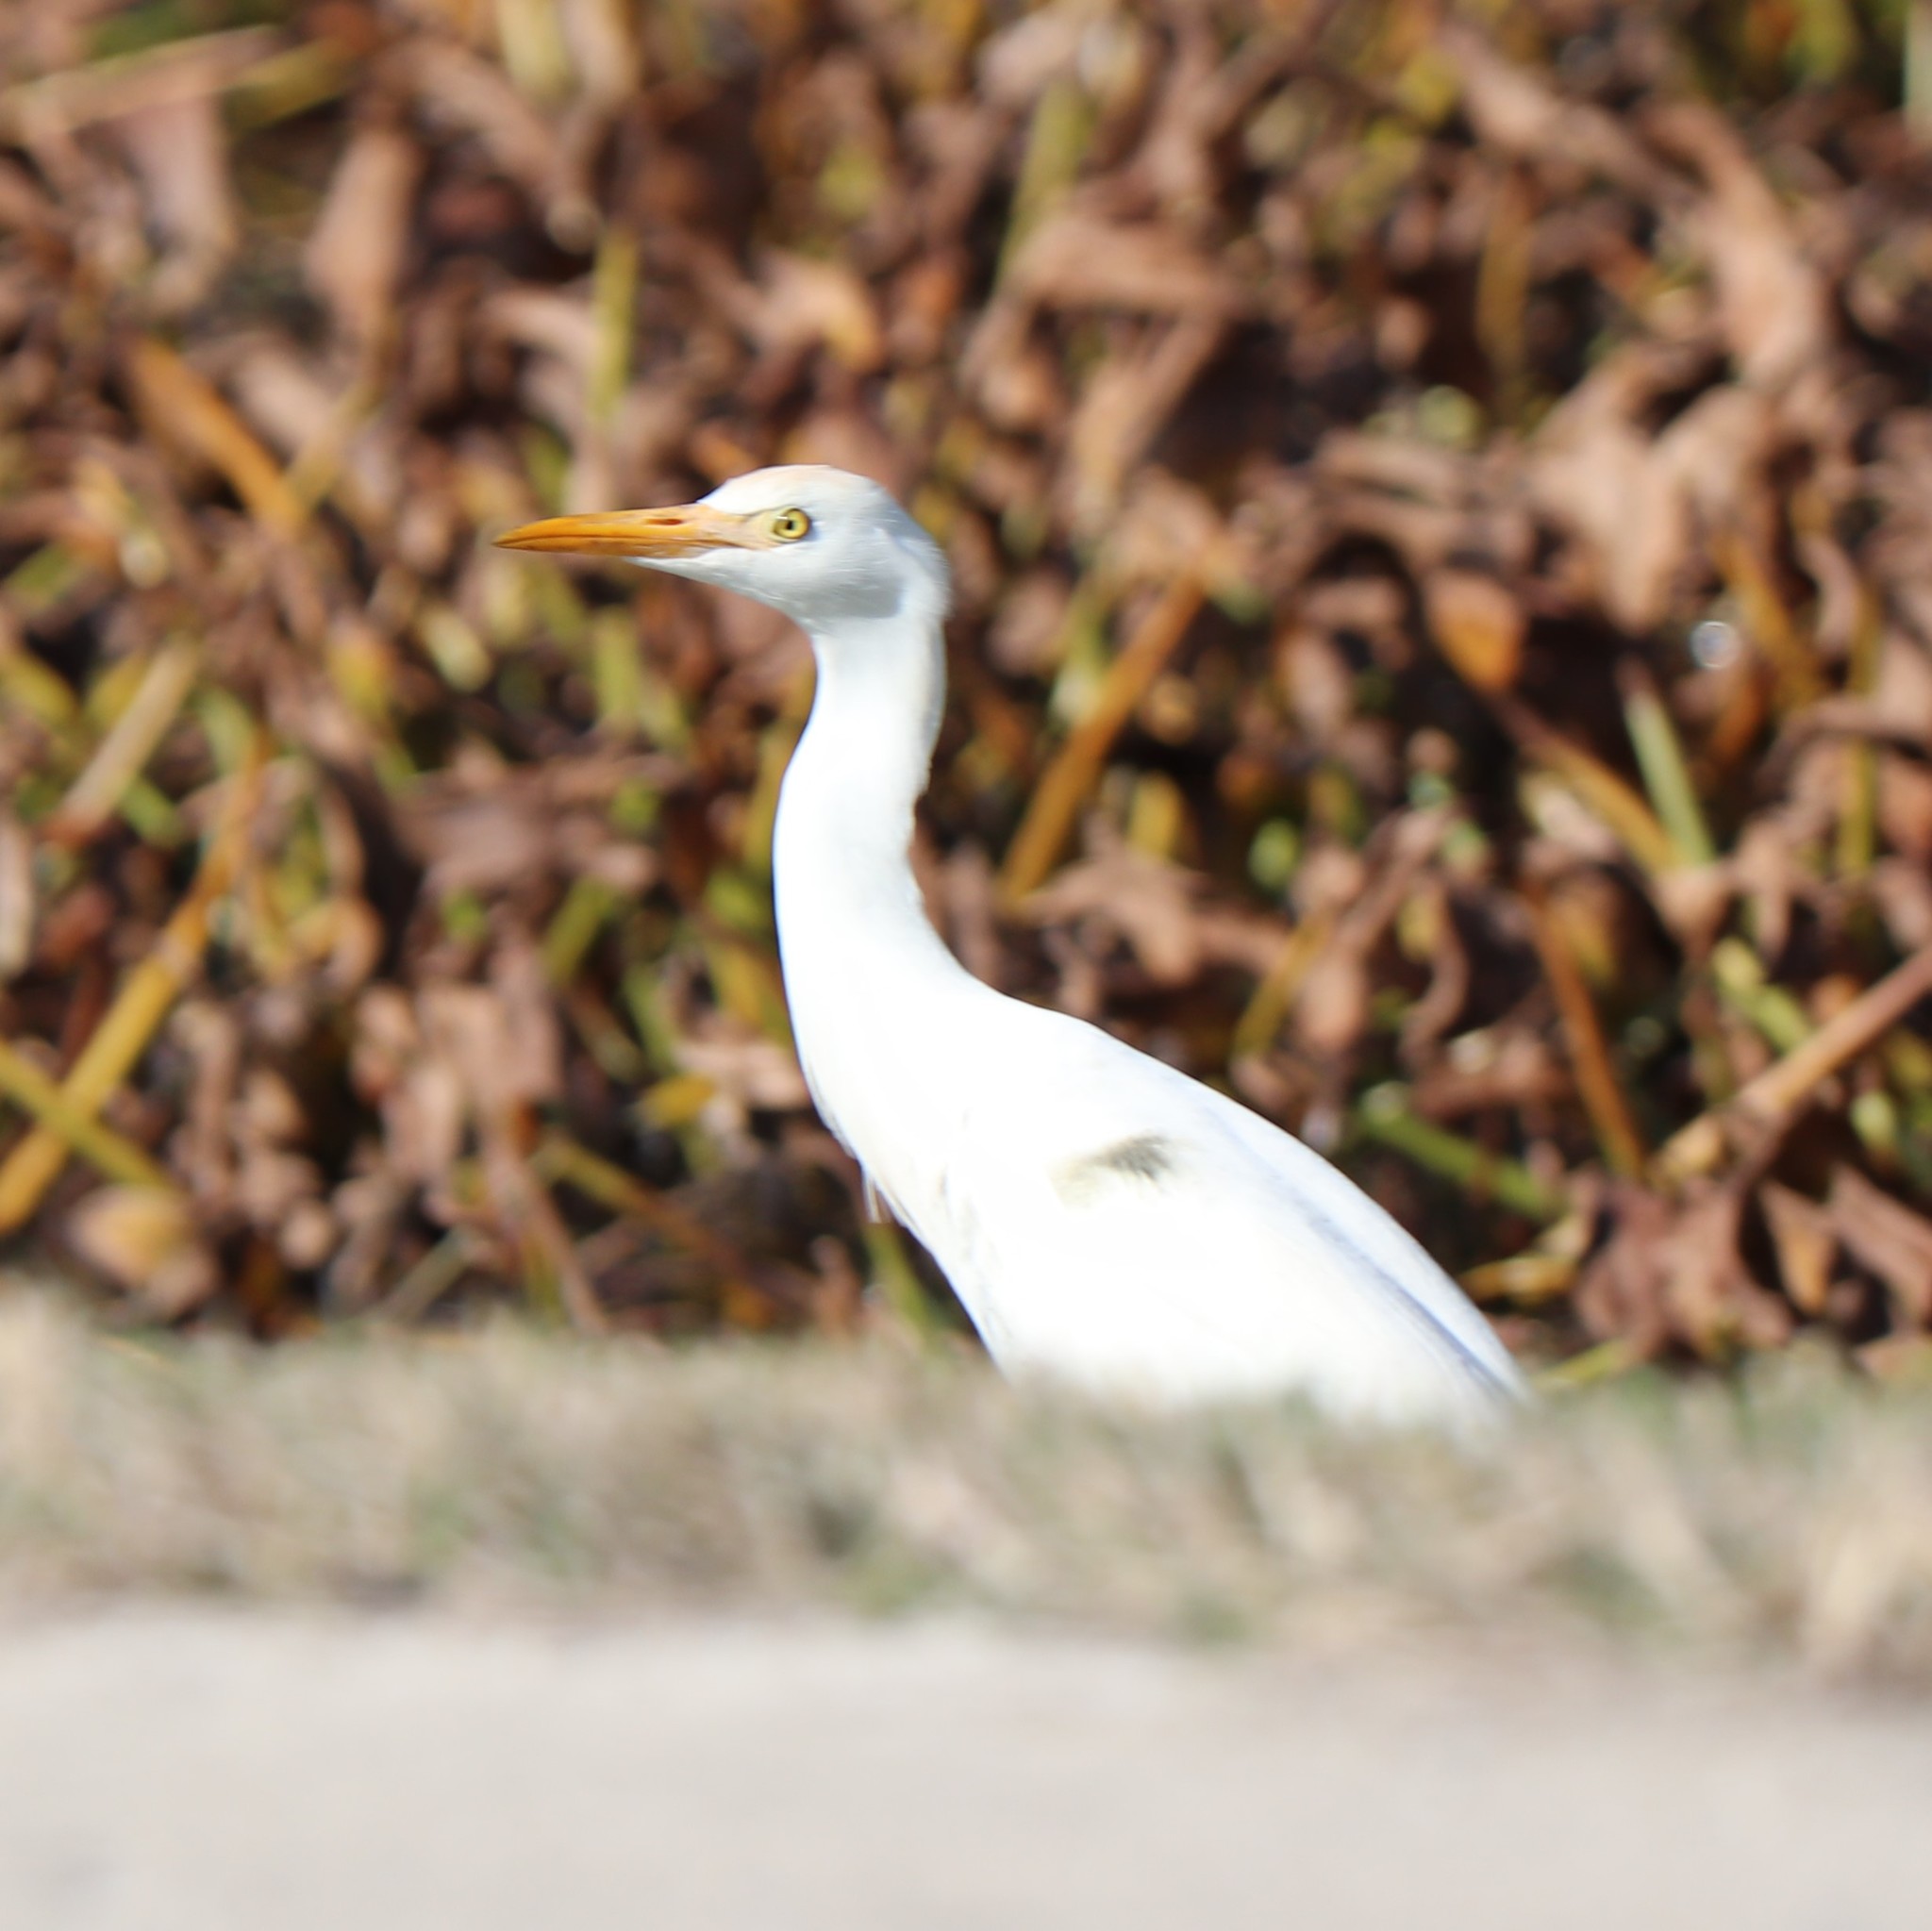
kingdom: Animalia
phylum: Chordata
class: Aves
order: Pelecaniformes
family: Ardeidae
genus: Bubulcus
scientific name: Bubulcus ibis
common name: Cattle egret
